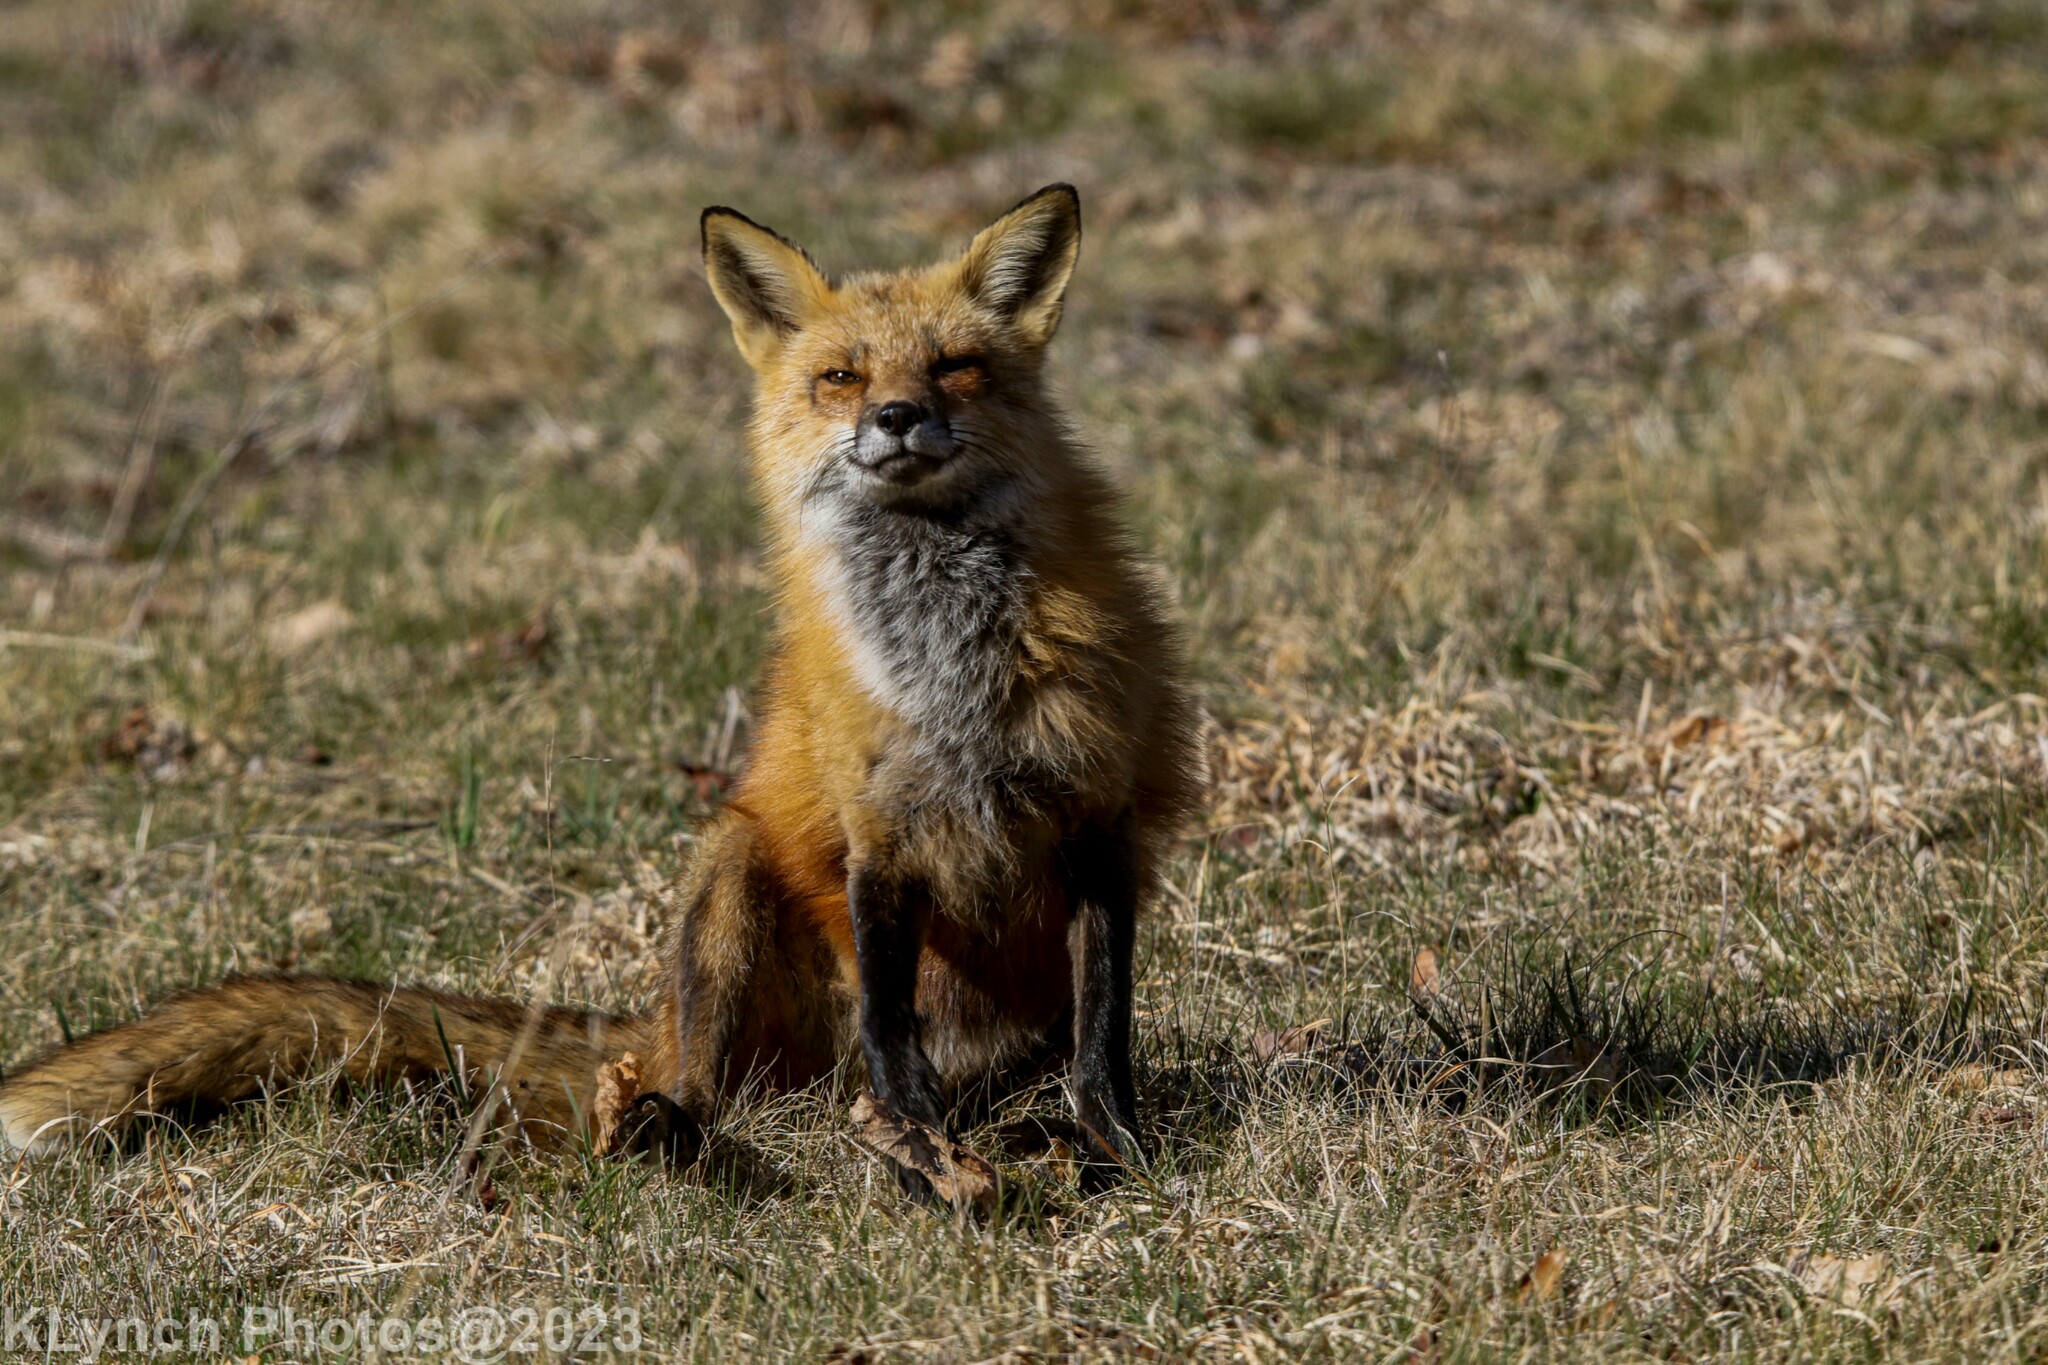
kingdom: Animalia
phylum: Chordata
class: Mammalia
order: Carnivora
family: Canidae
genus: Vulpes
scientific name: Vulpes vulpes
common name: Red fox
